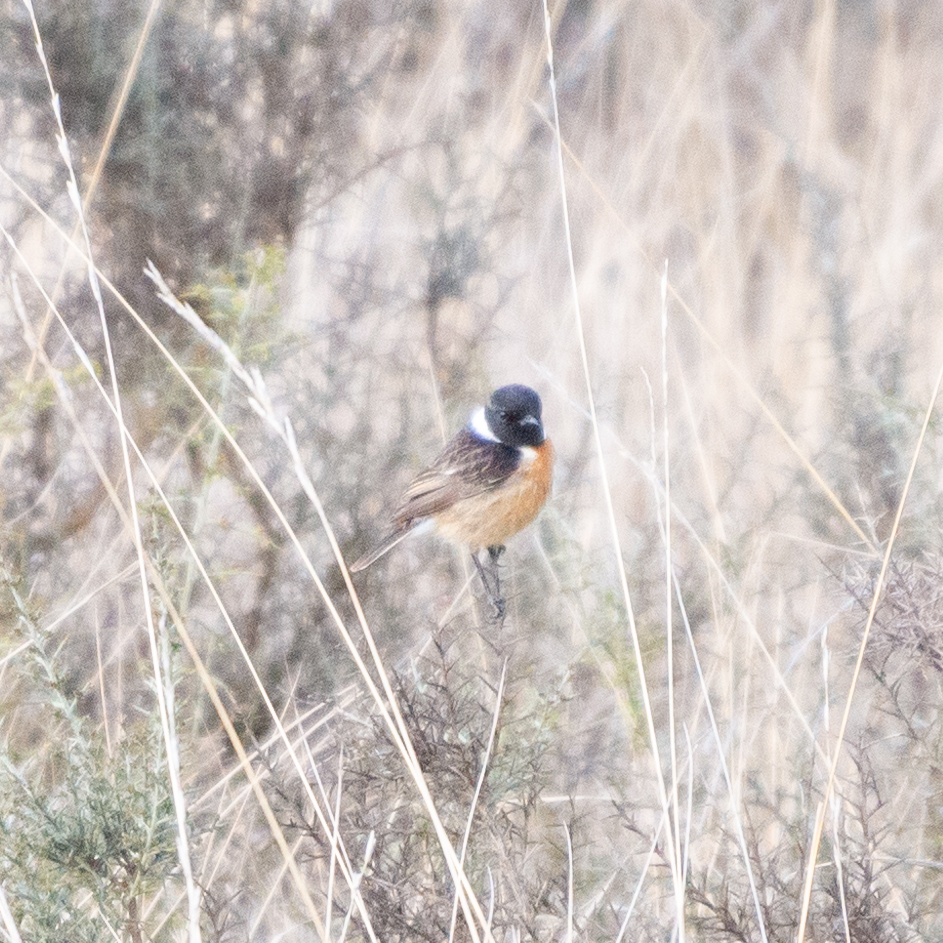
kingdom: Animalia
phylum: Chordata
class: Aves
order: Passeriformes
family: Muscicapidae
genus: Saxicola
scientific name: Saxicola rubicola
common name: European stonechat
